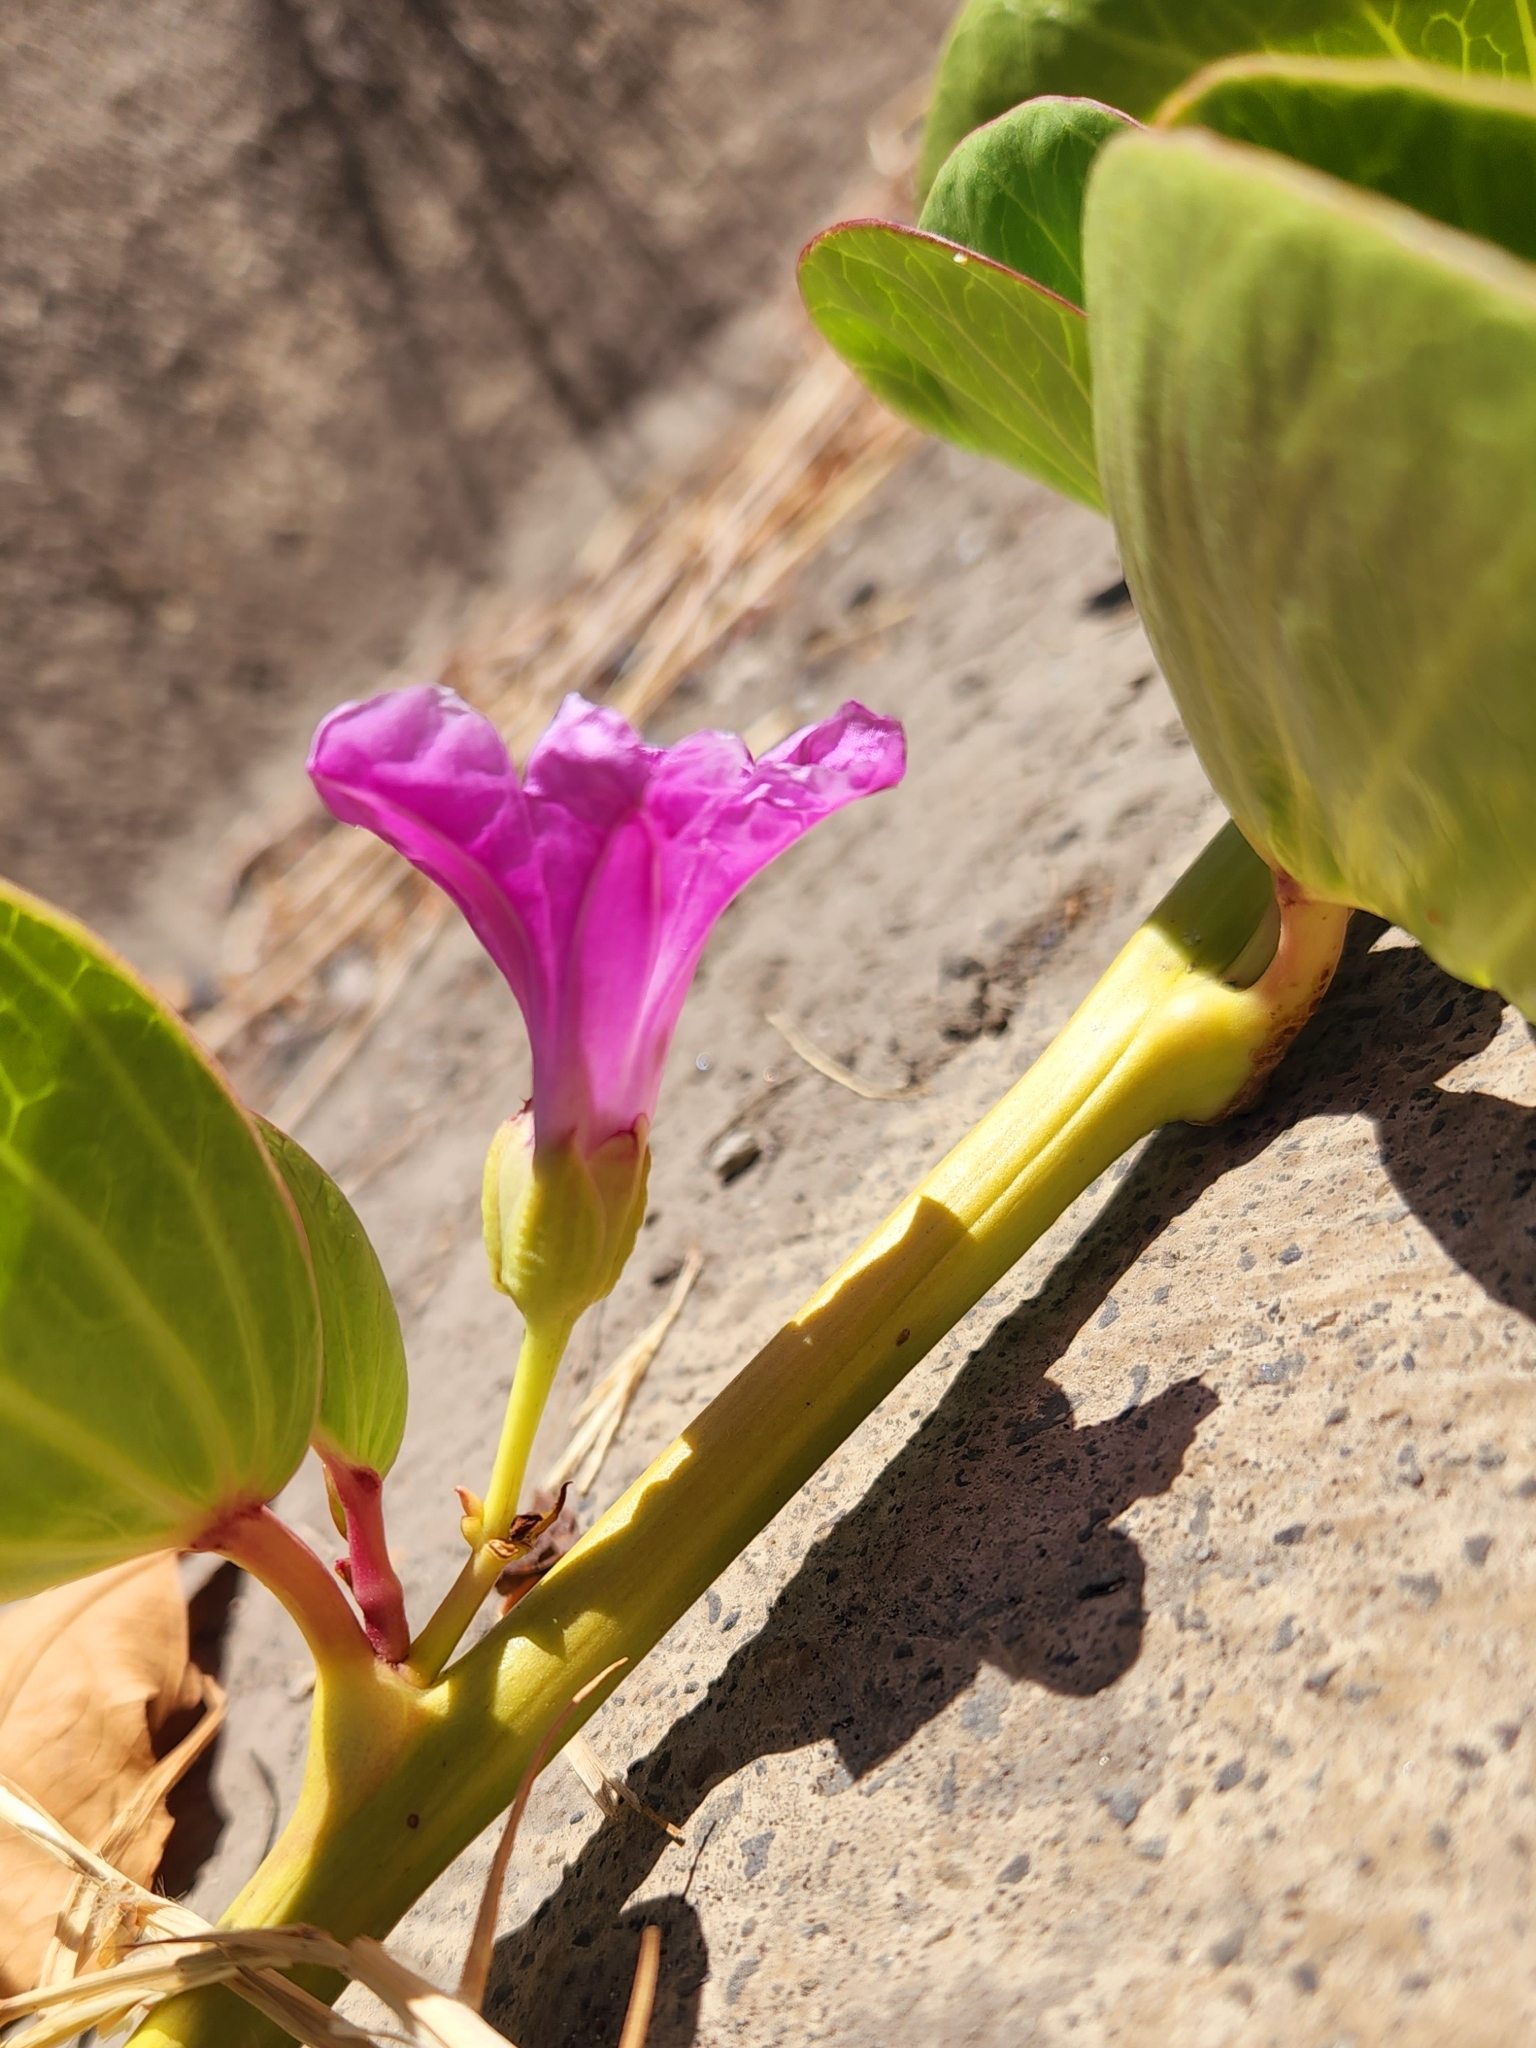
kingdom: Plantae
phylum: Tracheophyta
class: Magnoliopsida
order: Solanales
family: Convolvulaceae
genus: Ipomoea
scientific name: Ipomoea pes-caprae
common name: Beach morning glory
